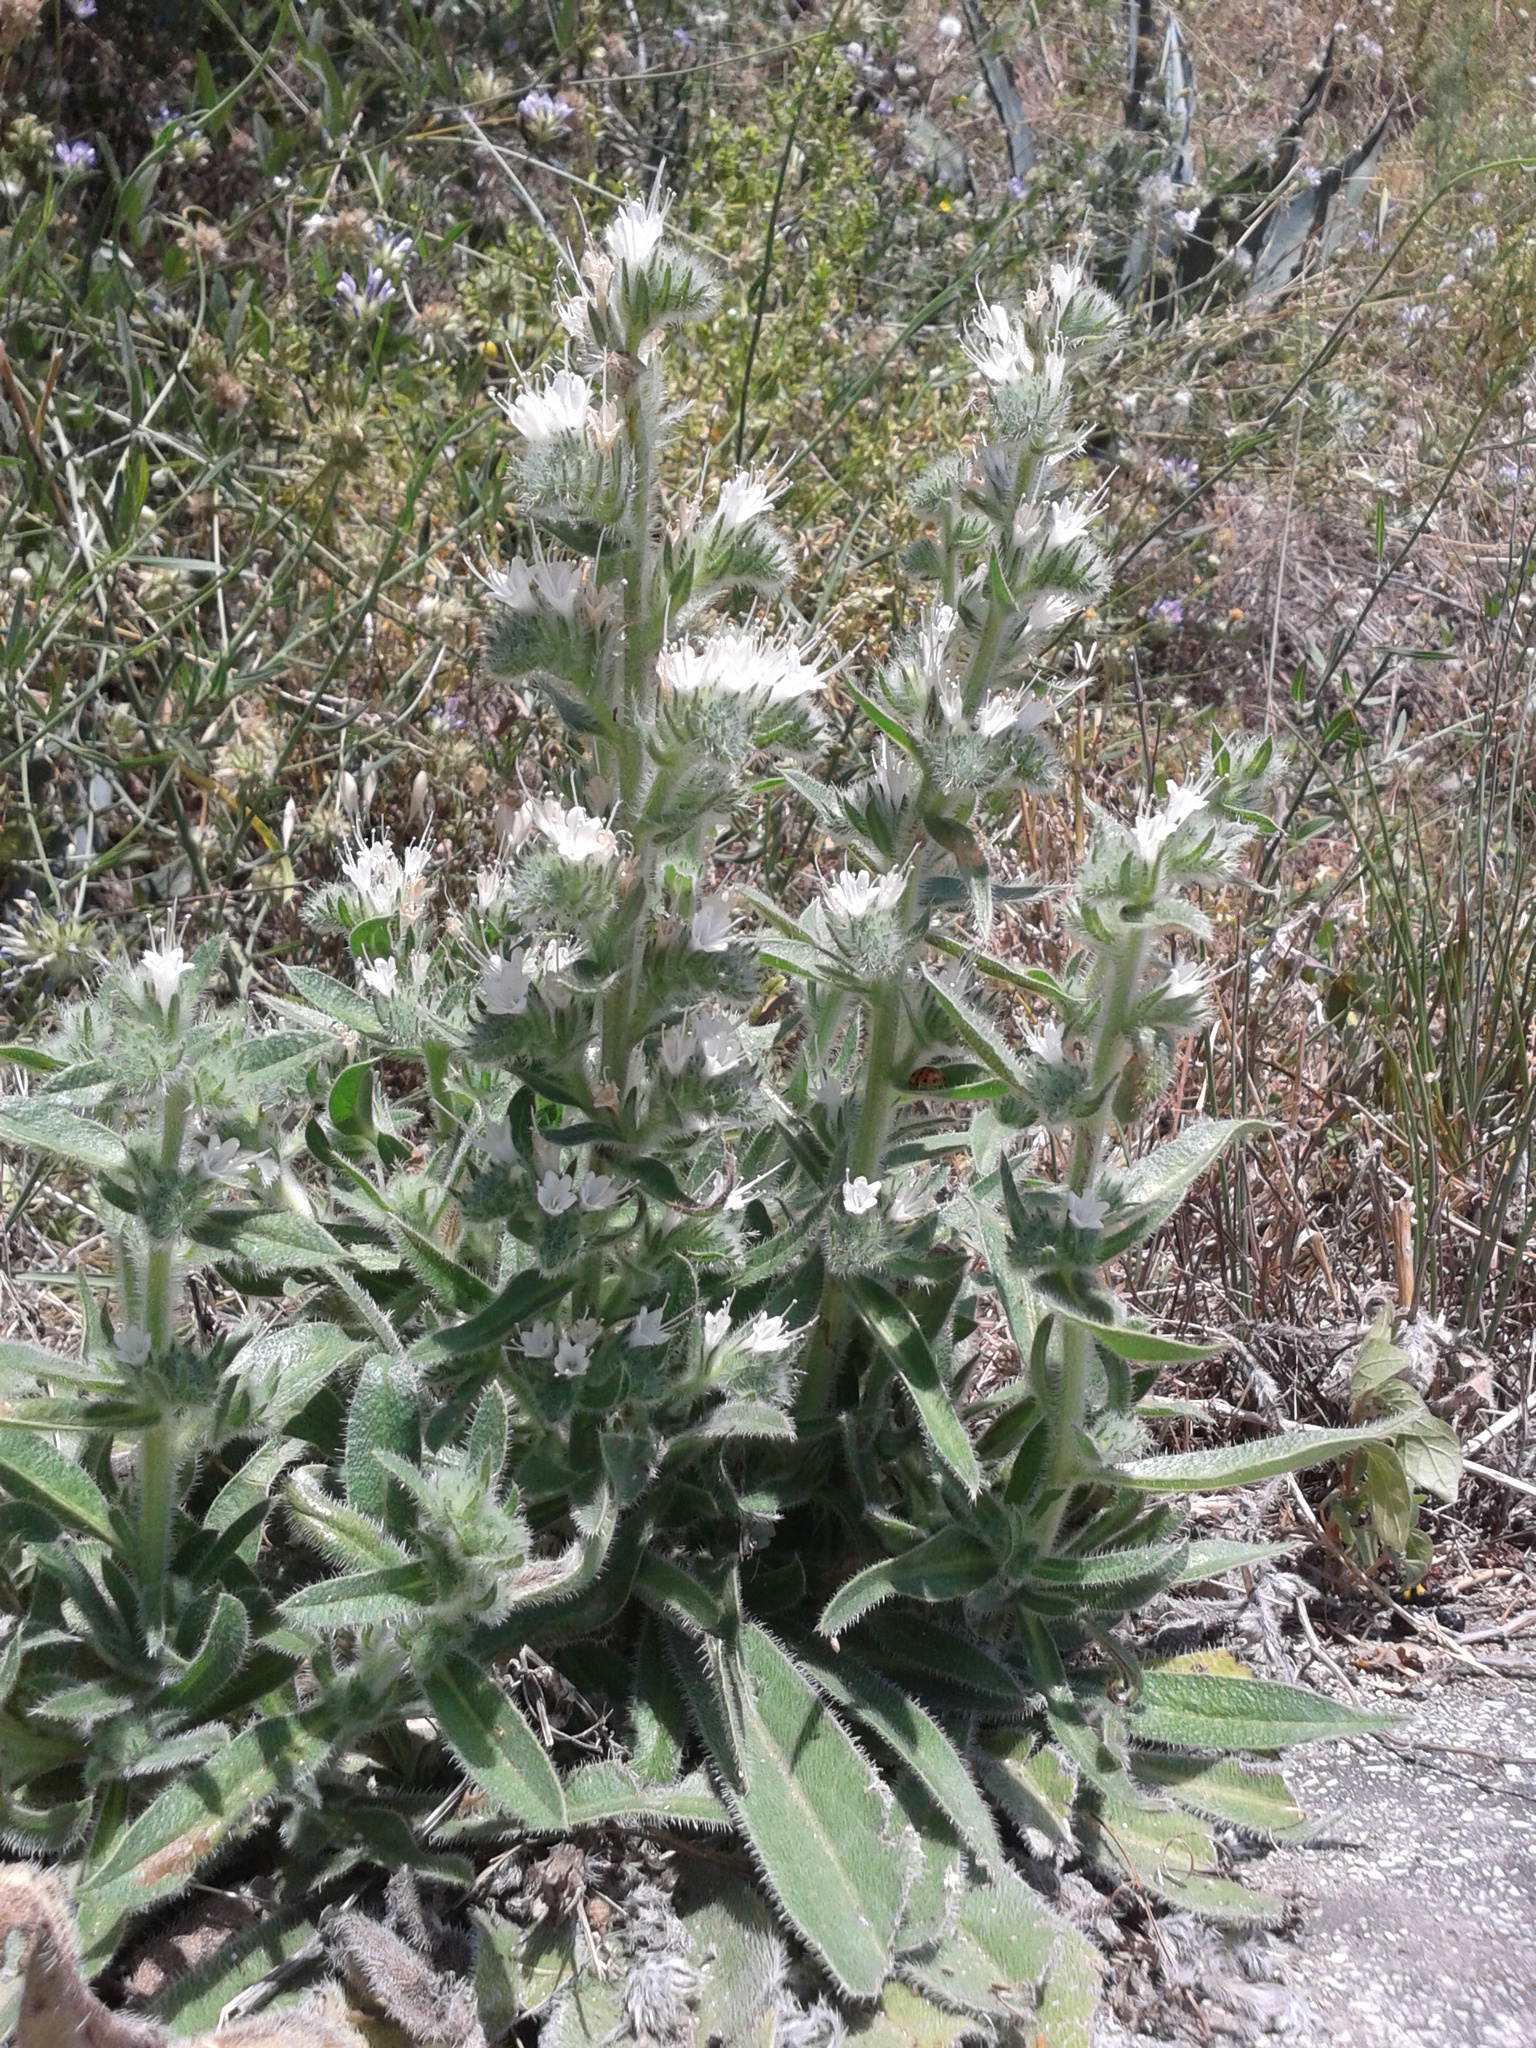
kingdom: Plantae
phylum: Tracheophyta
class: Magnoliopsida
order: Boraginales
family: Boraginaceae
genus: Echium
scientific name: Echium italicum
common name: Italian viper's bugloss
